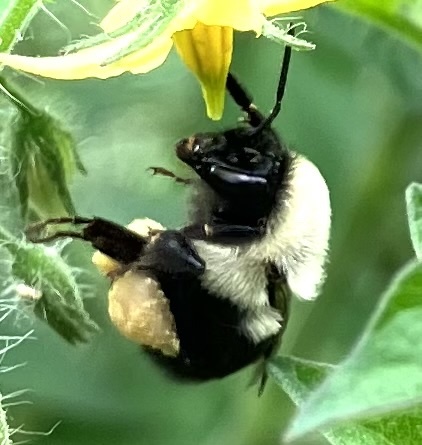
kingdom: Animalia
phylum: Arthropoda
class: Insecta
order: Hymenoptera
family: Apidae
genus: Bombus
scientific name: Bombus impatiens
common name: Common eastern bumble bee
